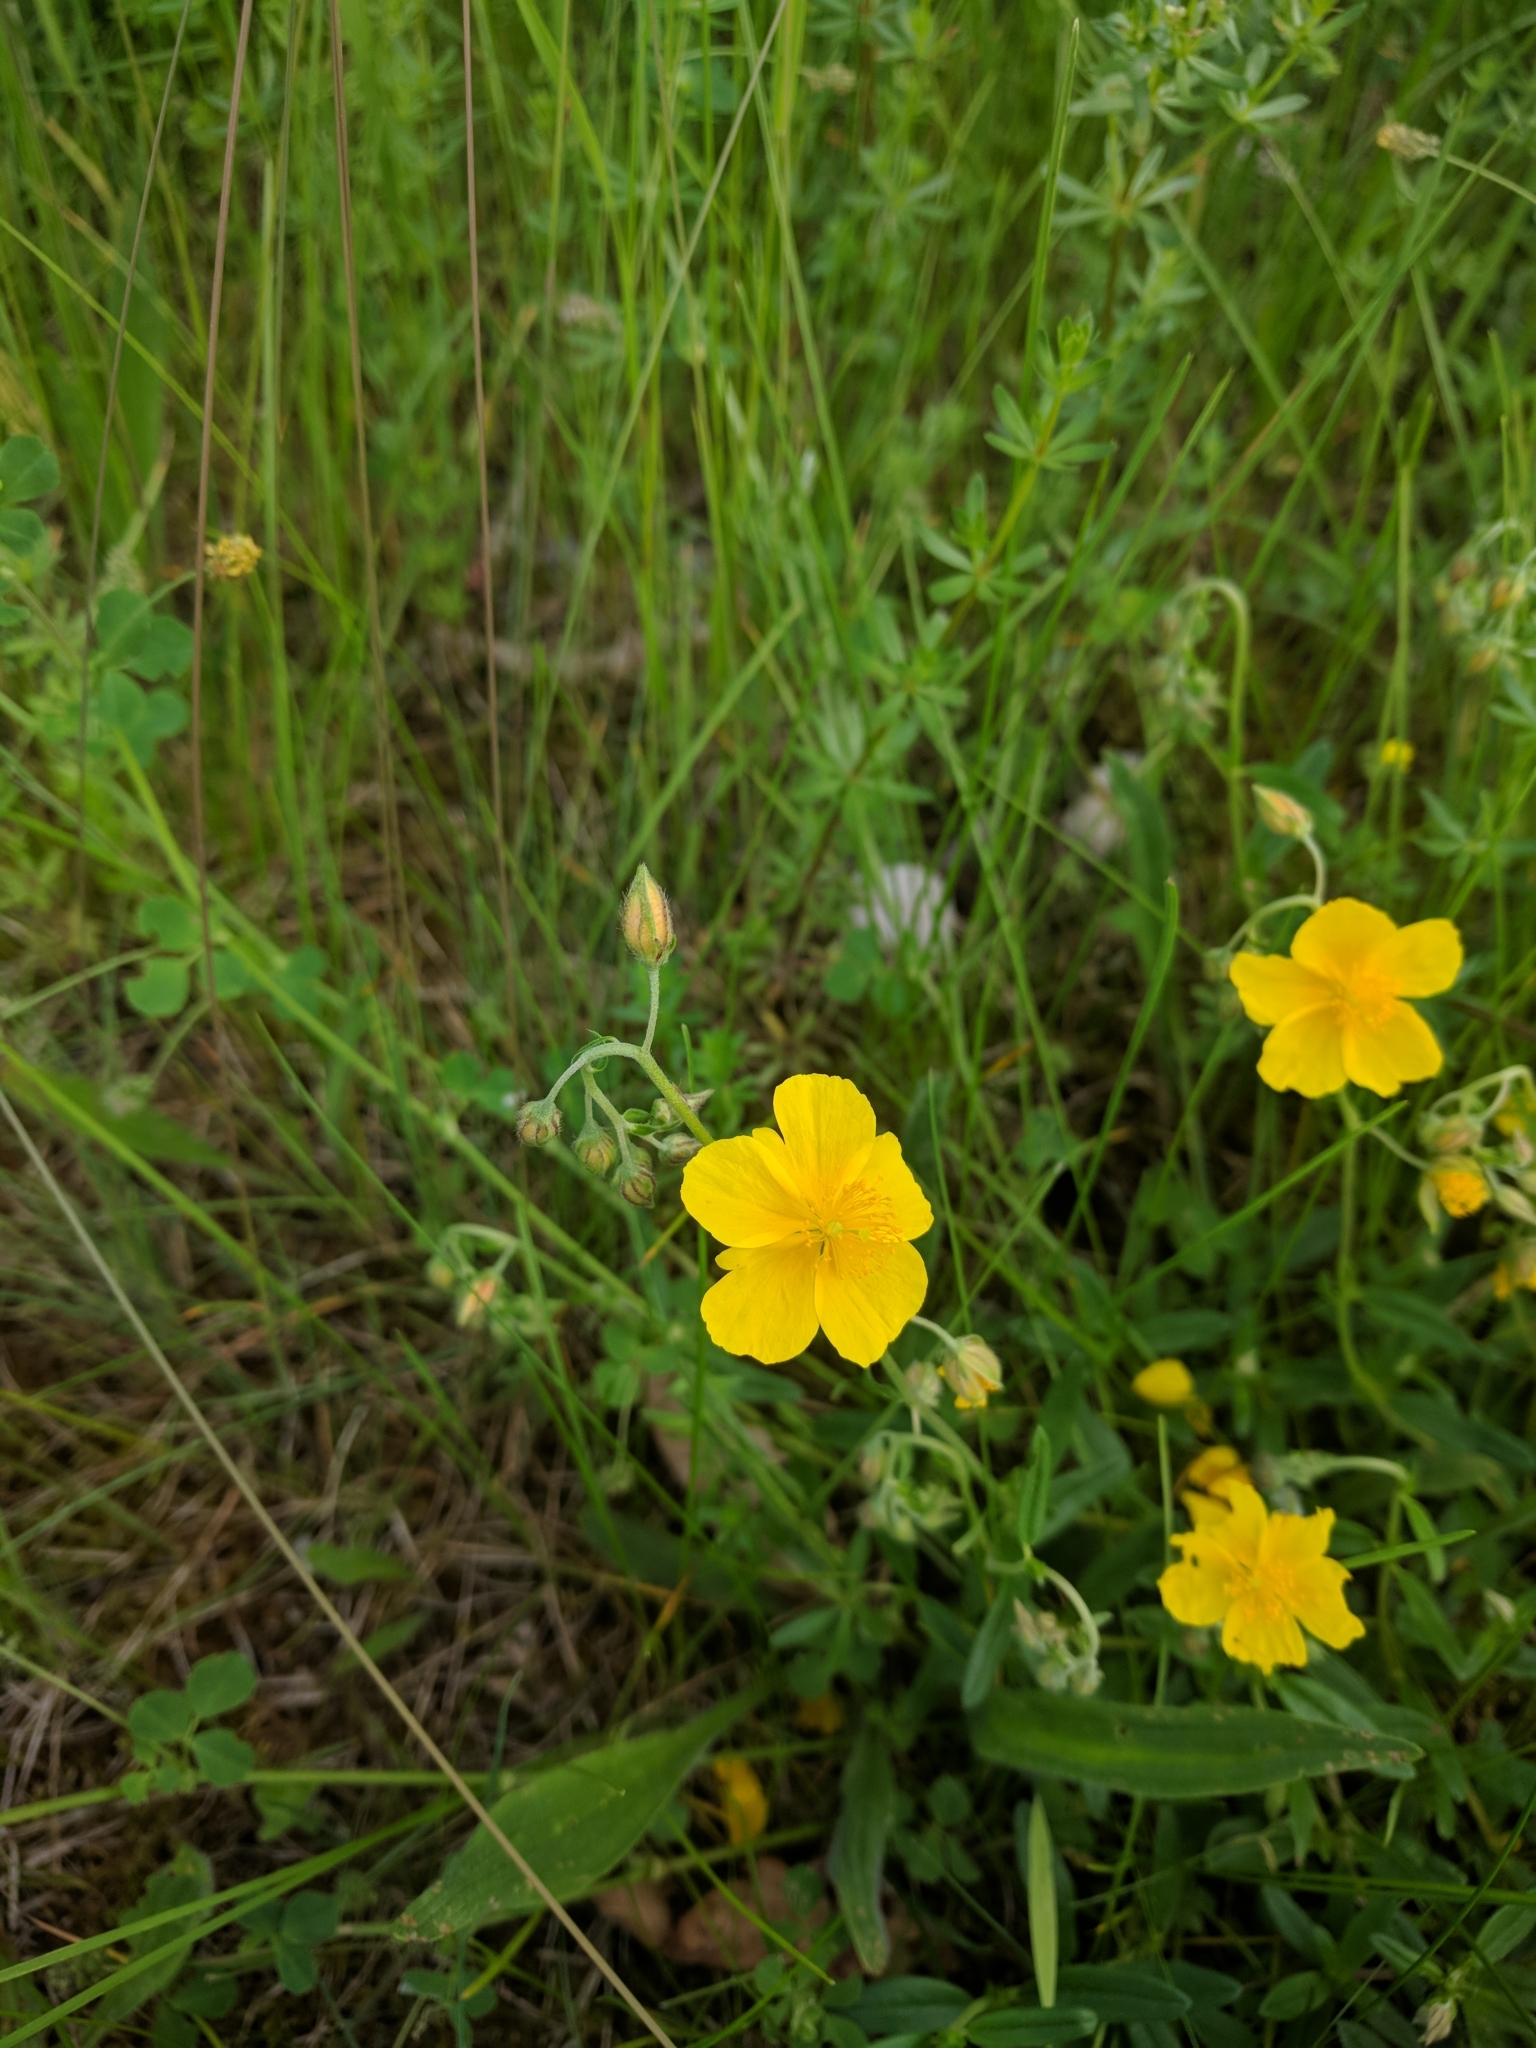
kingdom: Plantae
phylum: Tracheophyta
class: Magnoliopsida
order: Malvales
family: Cistaceae
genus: Helianthemum
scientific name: Helianthemum nummularium
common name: Common rock-rose
